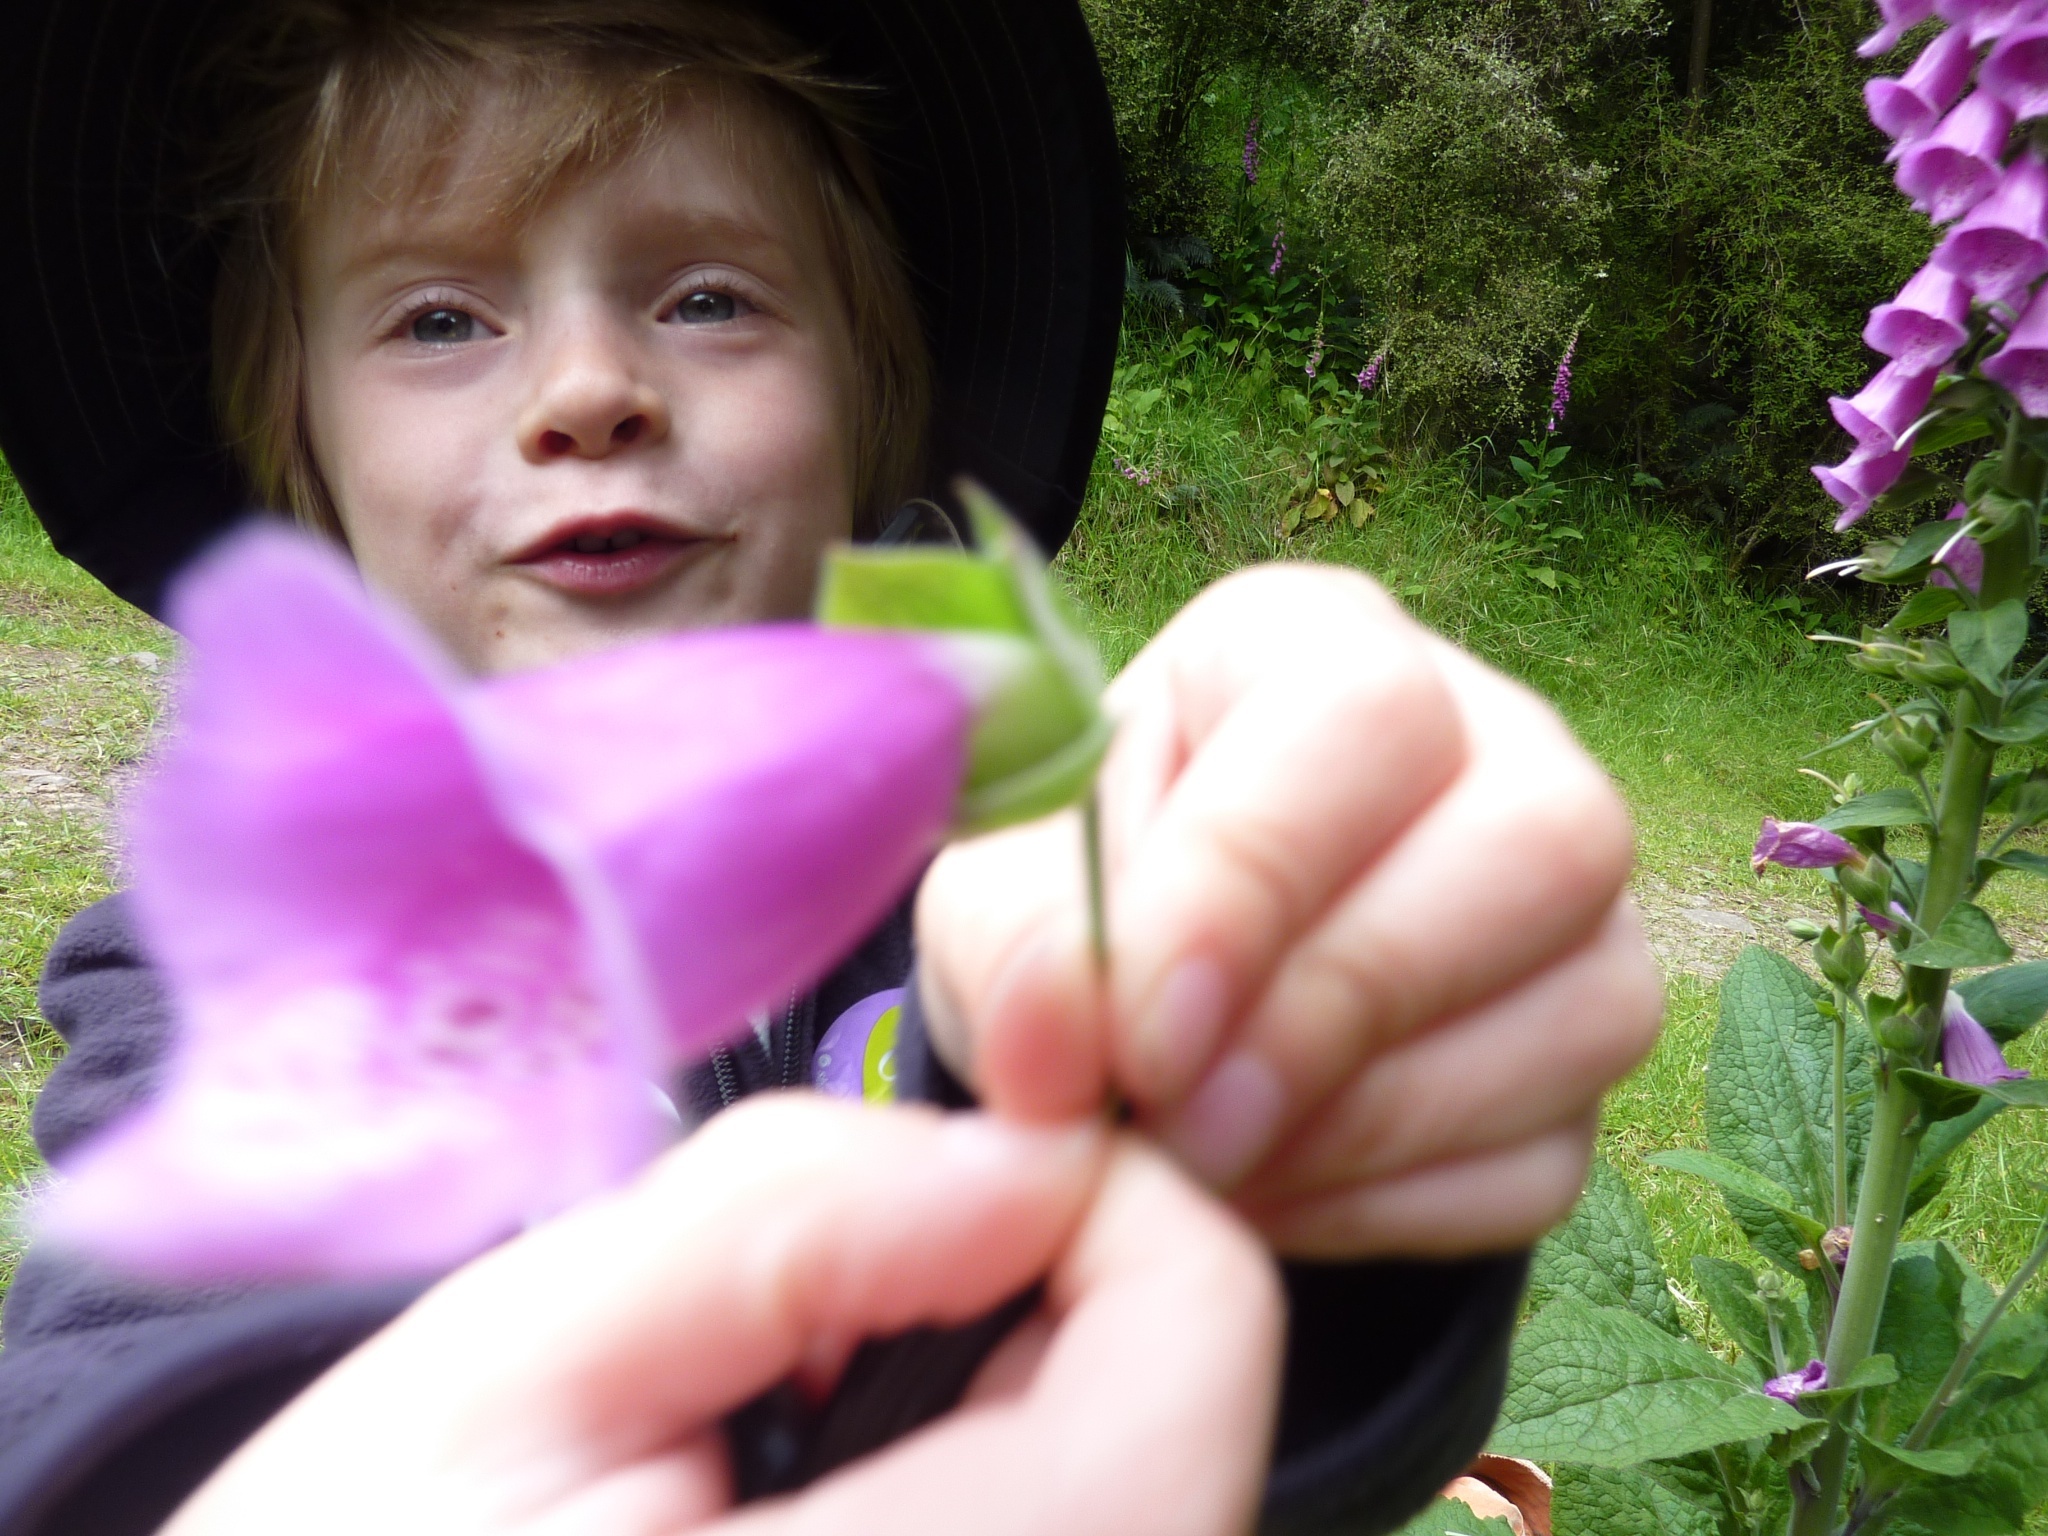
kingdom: Plantae
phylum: Tracheophyta
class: Magnoliopsida
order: Lamiales
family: Plantaginaceae
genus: Digitalis
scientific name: Digitalis purpurea
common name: Foxglove
